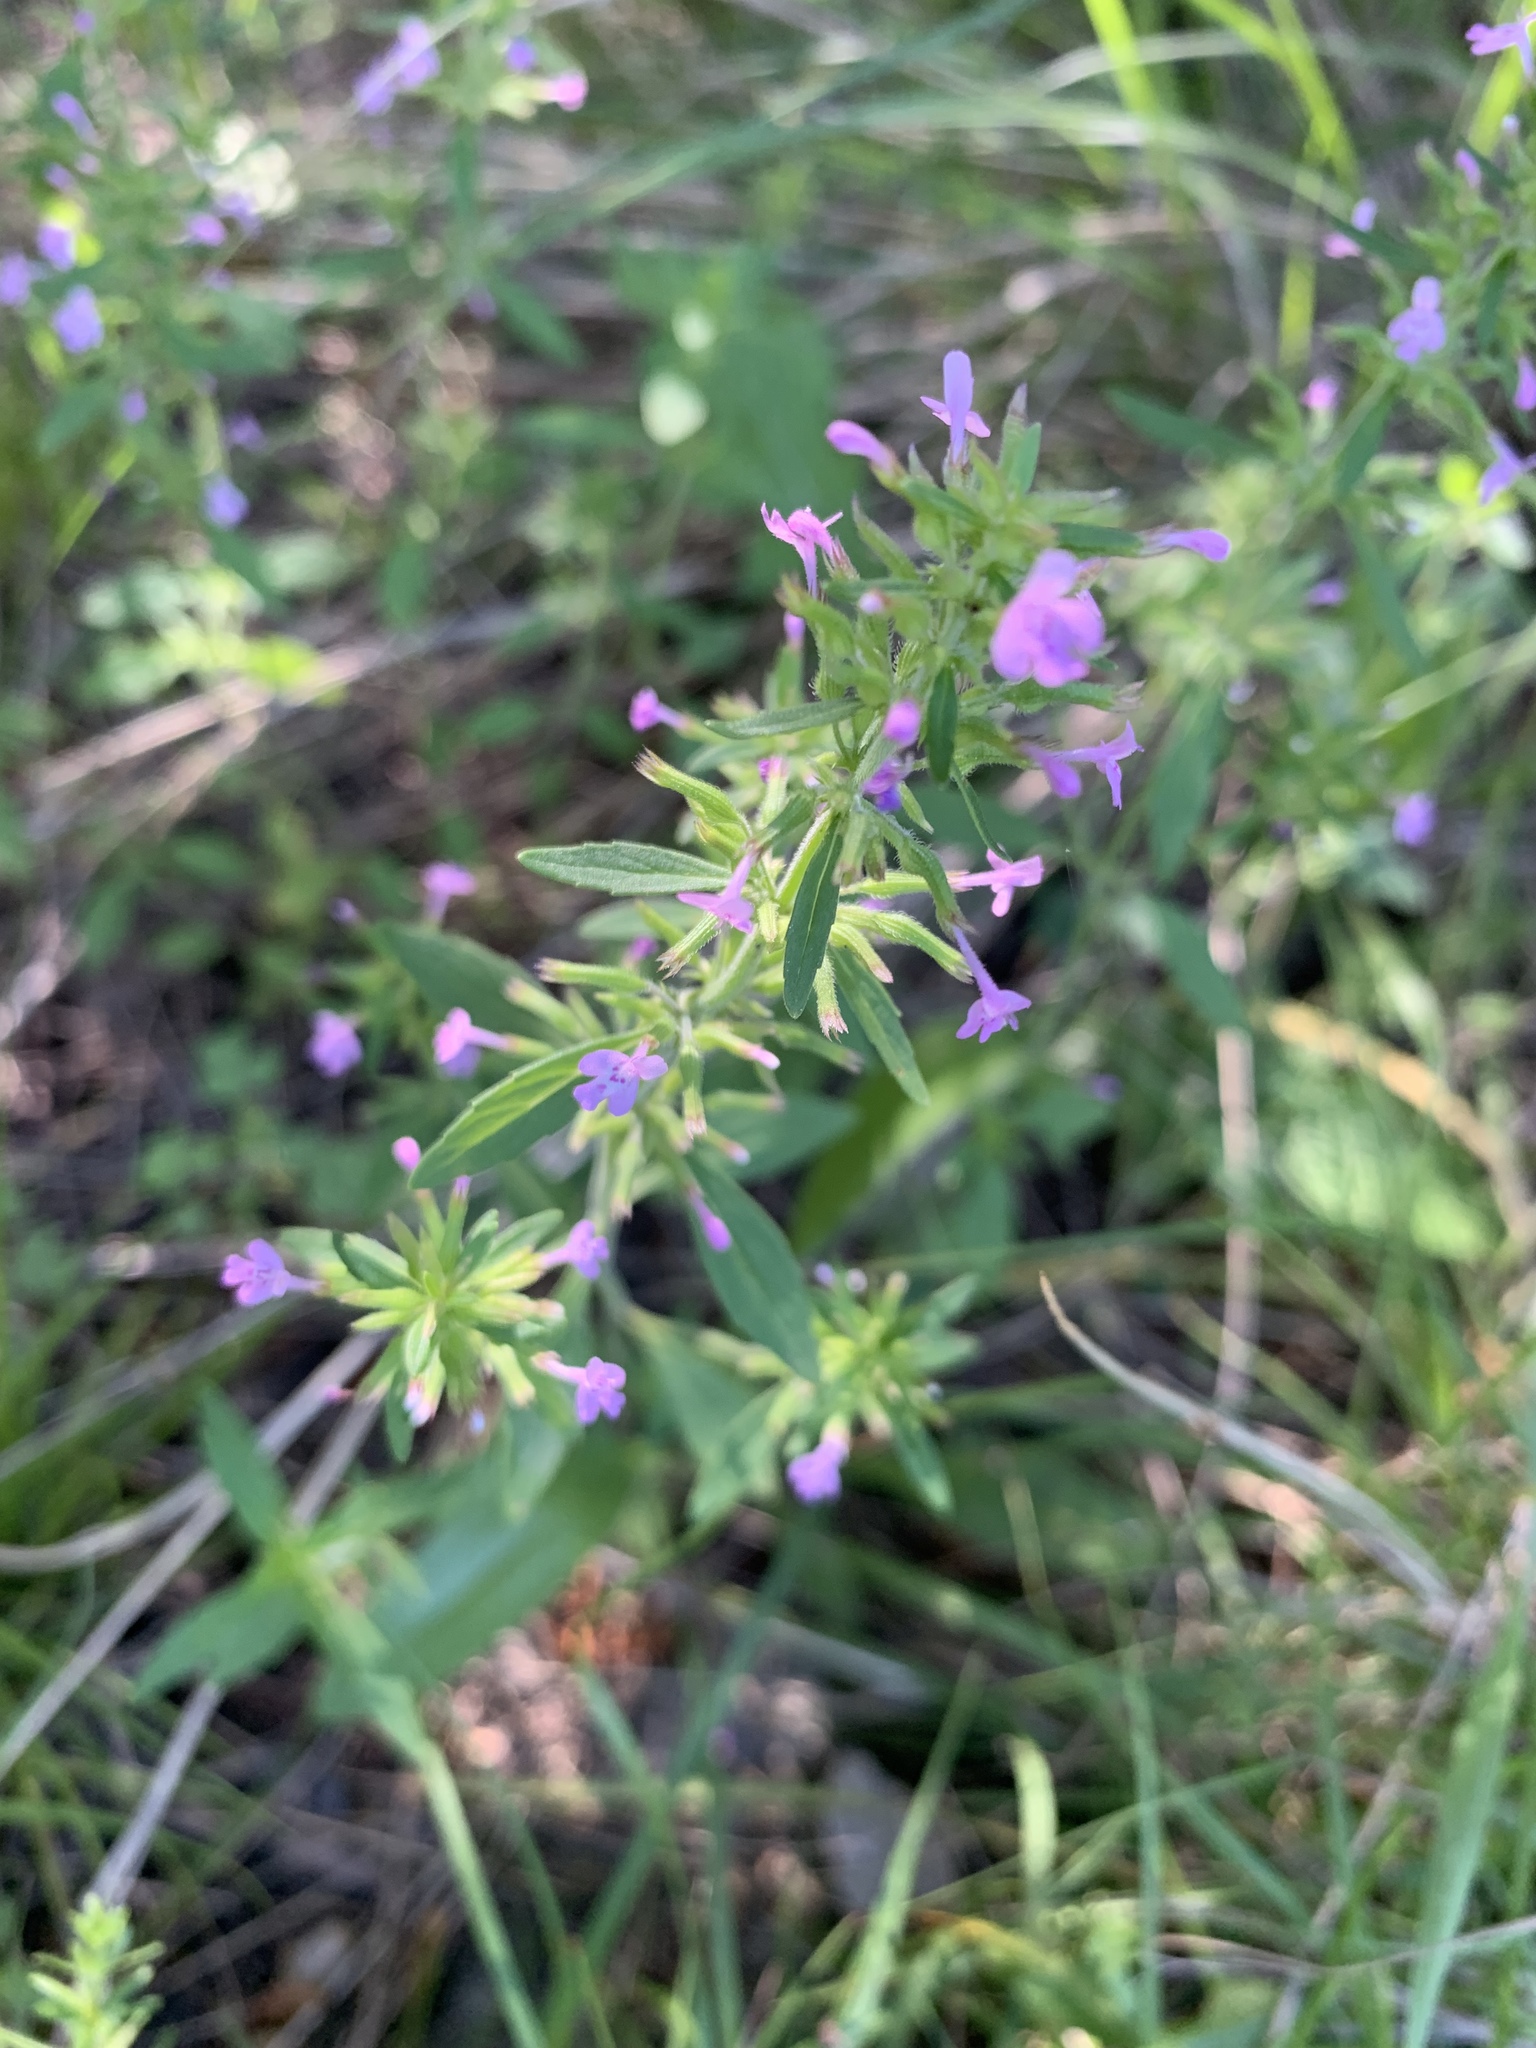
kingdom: Plantae
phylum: Tracheophyta
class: Magnoliopsida
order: Lamiales
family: Lamiaceae
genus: Hedeoma
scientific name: Hedeoma acinoides
